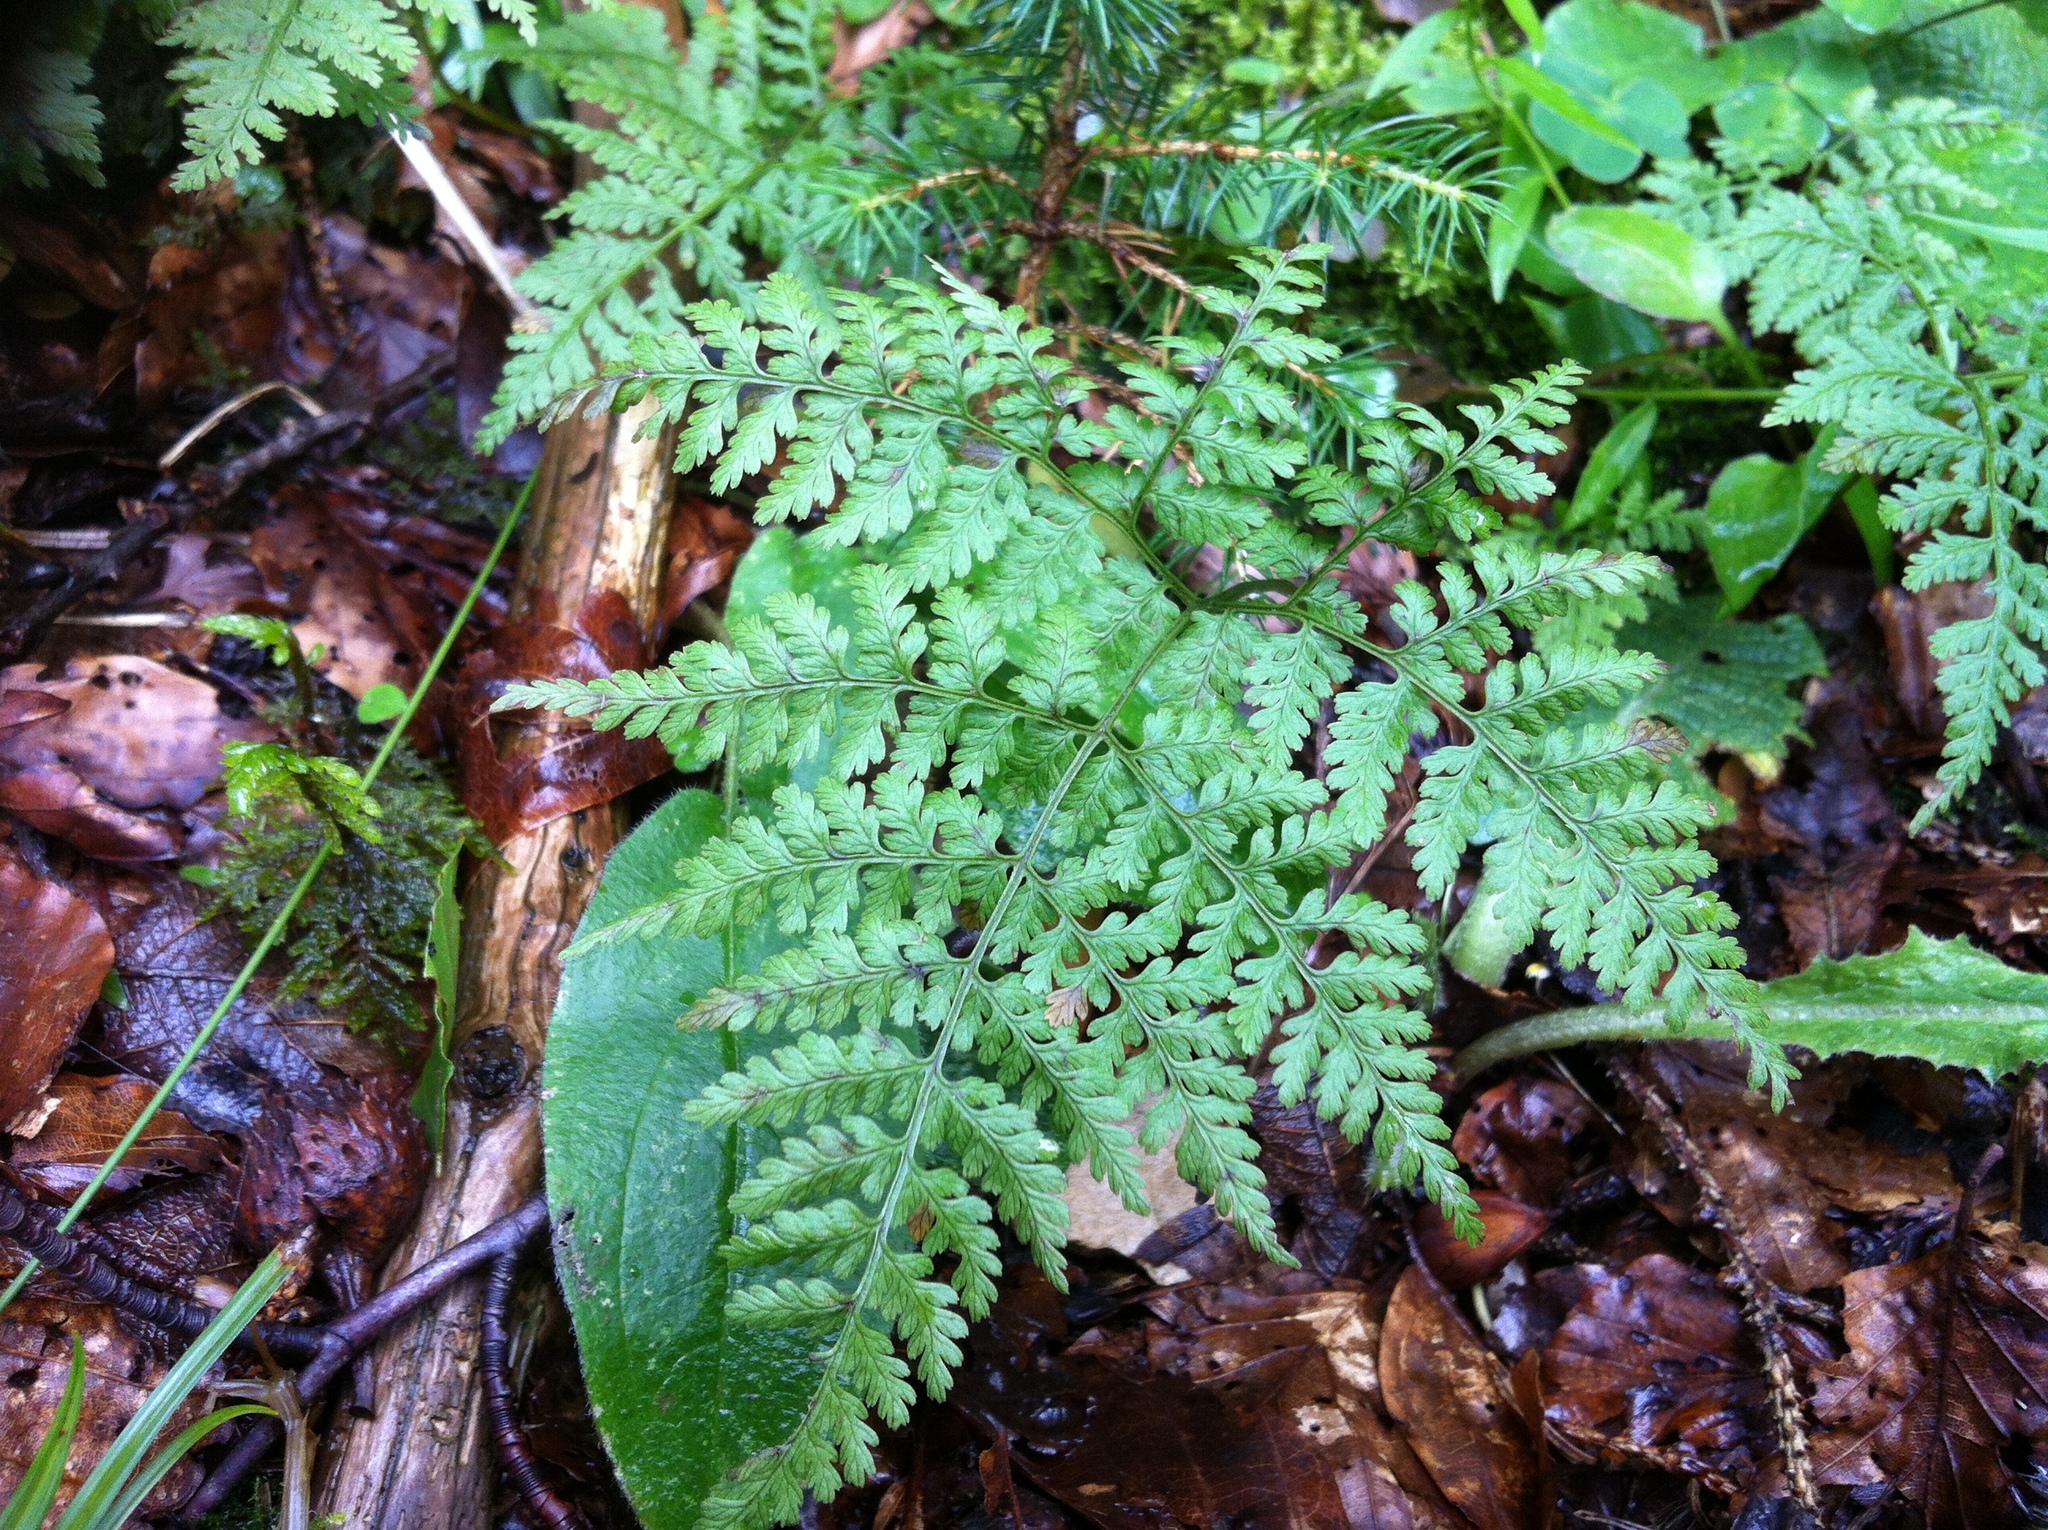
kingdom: Plantae
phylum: Tracheophyta
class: Polypodiopsida
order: Polypodiales
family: Cystopteridaceae
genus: Cystopteris
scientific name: Cystopteris montana
